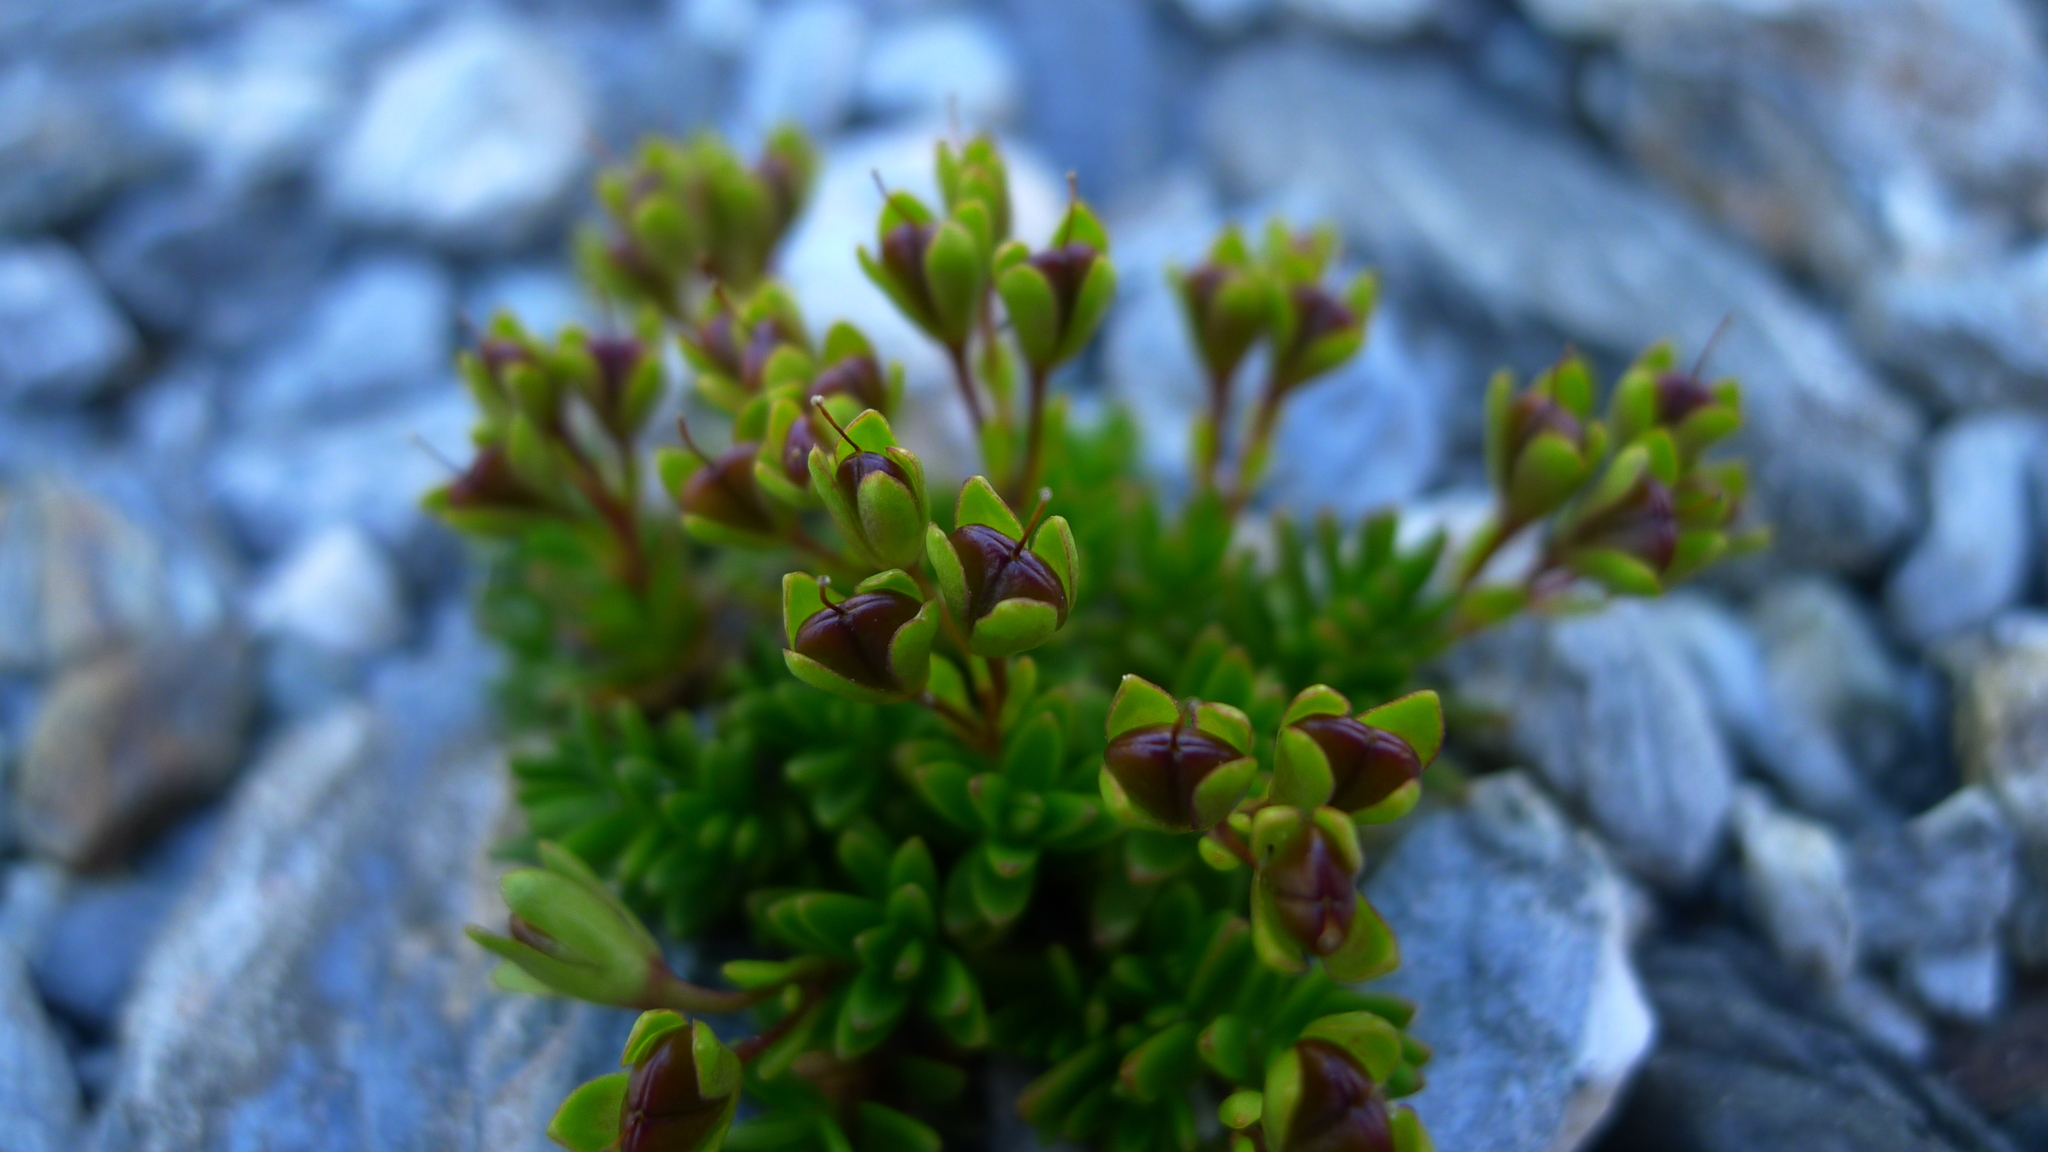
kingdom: Plantae
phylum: Tracheophyta
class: Magnoliopsida
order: Lamiales
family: Plantaginaceae
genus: Veronica
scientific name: Veronica colostylis
